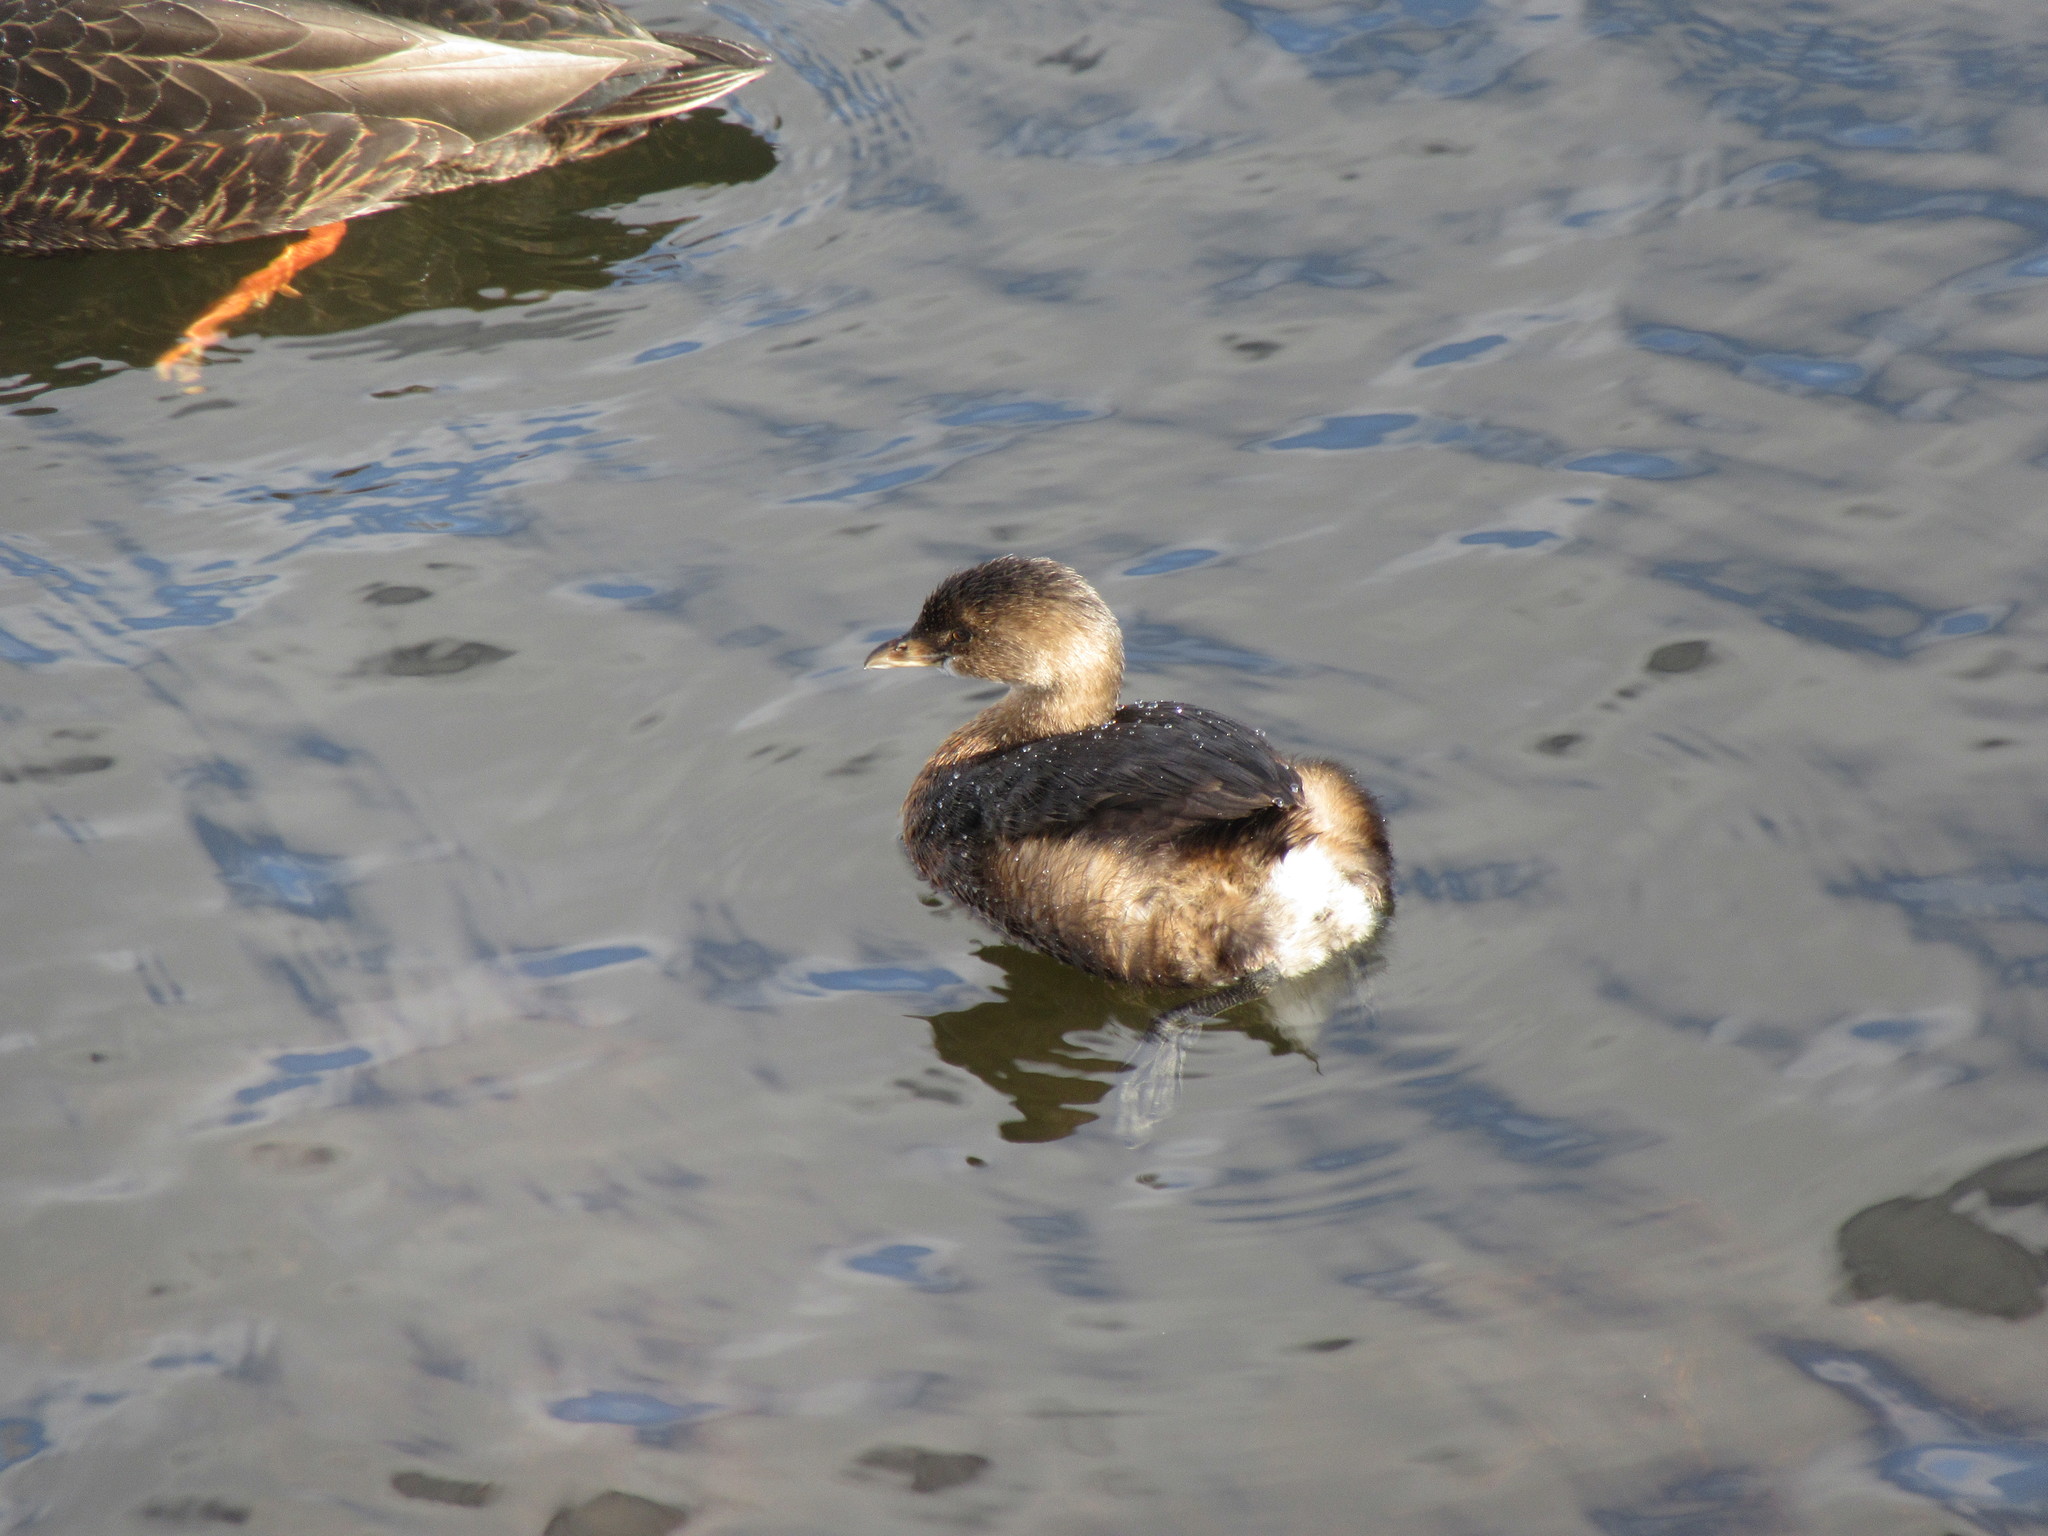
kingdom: Animalia
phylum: Chordata
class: Aves
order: Podicipediformes
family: Podicipedidae
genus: Podilymbus
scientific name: Podilymbus podiceps
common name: Pied-billed grebe
